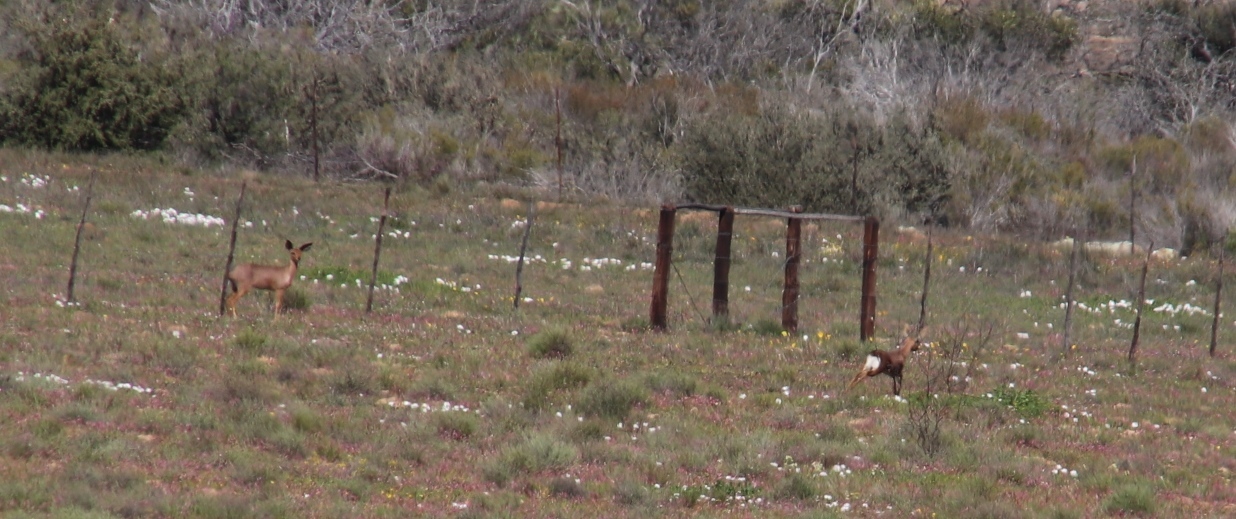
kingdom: Animalia
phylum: Chordata
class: Mammalia
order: Artiodactyla
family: Bovidae
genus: Raphicerus
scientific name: Raphicerus campestris
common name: Steenbok
